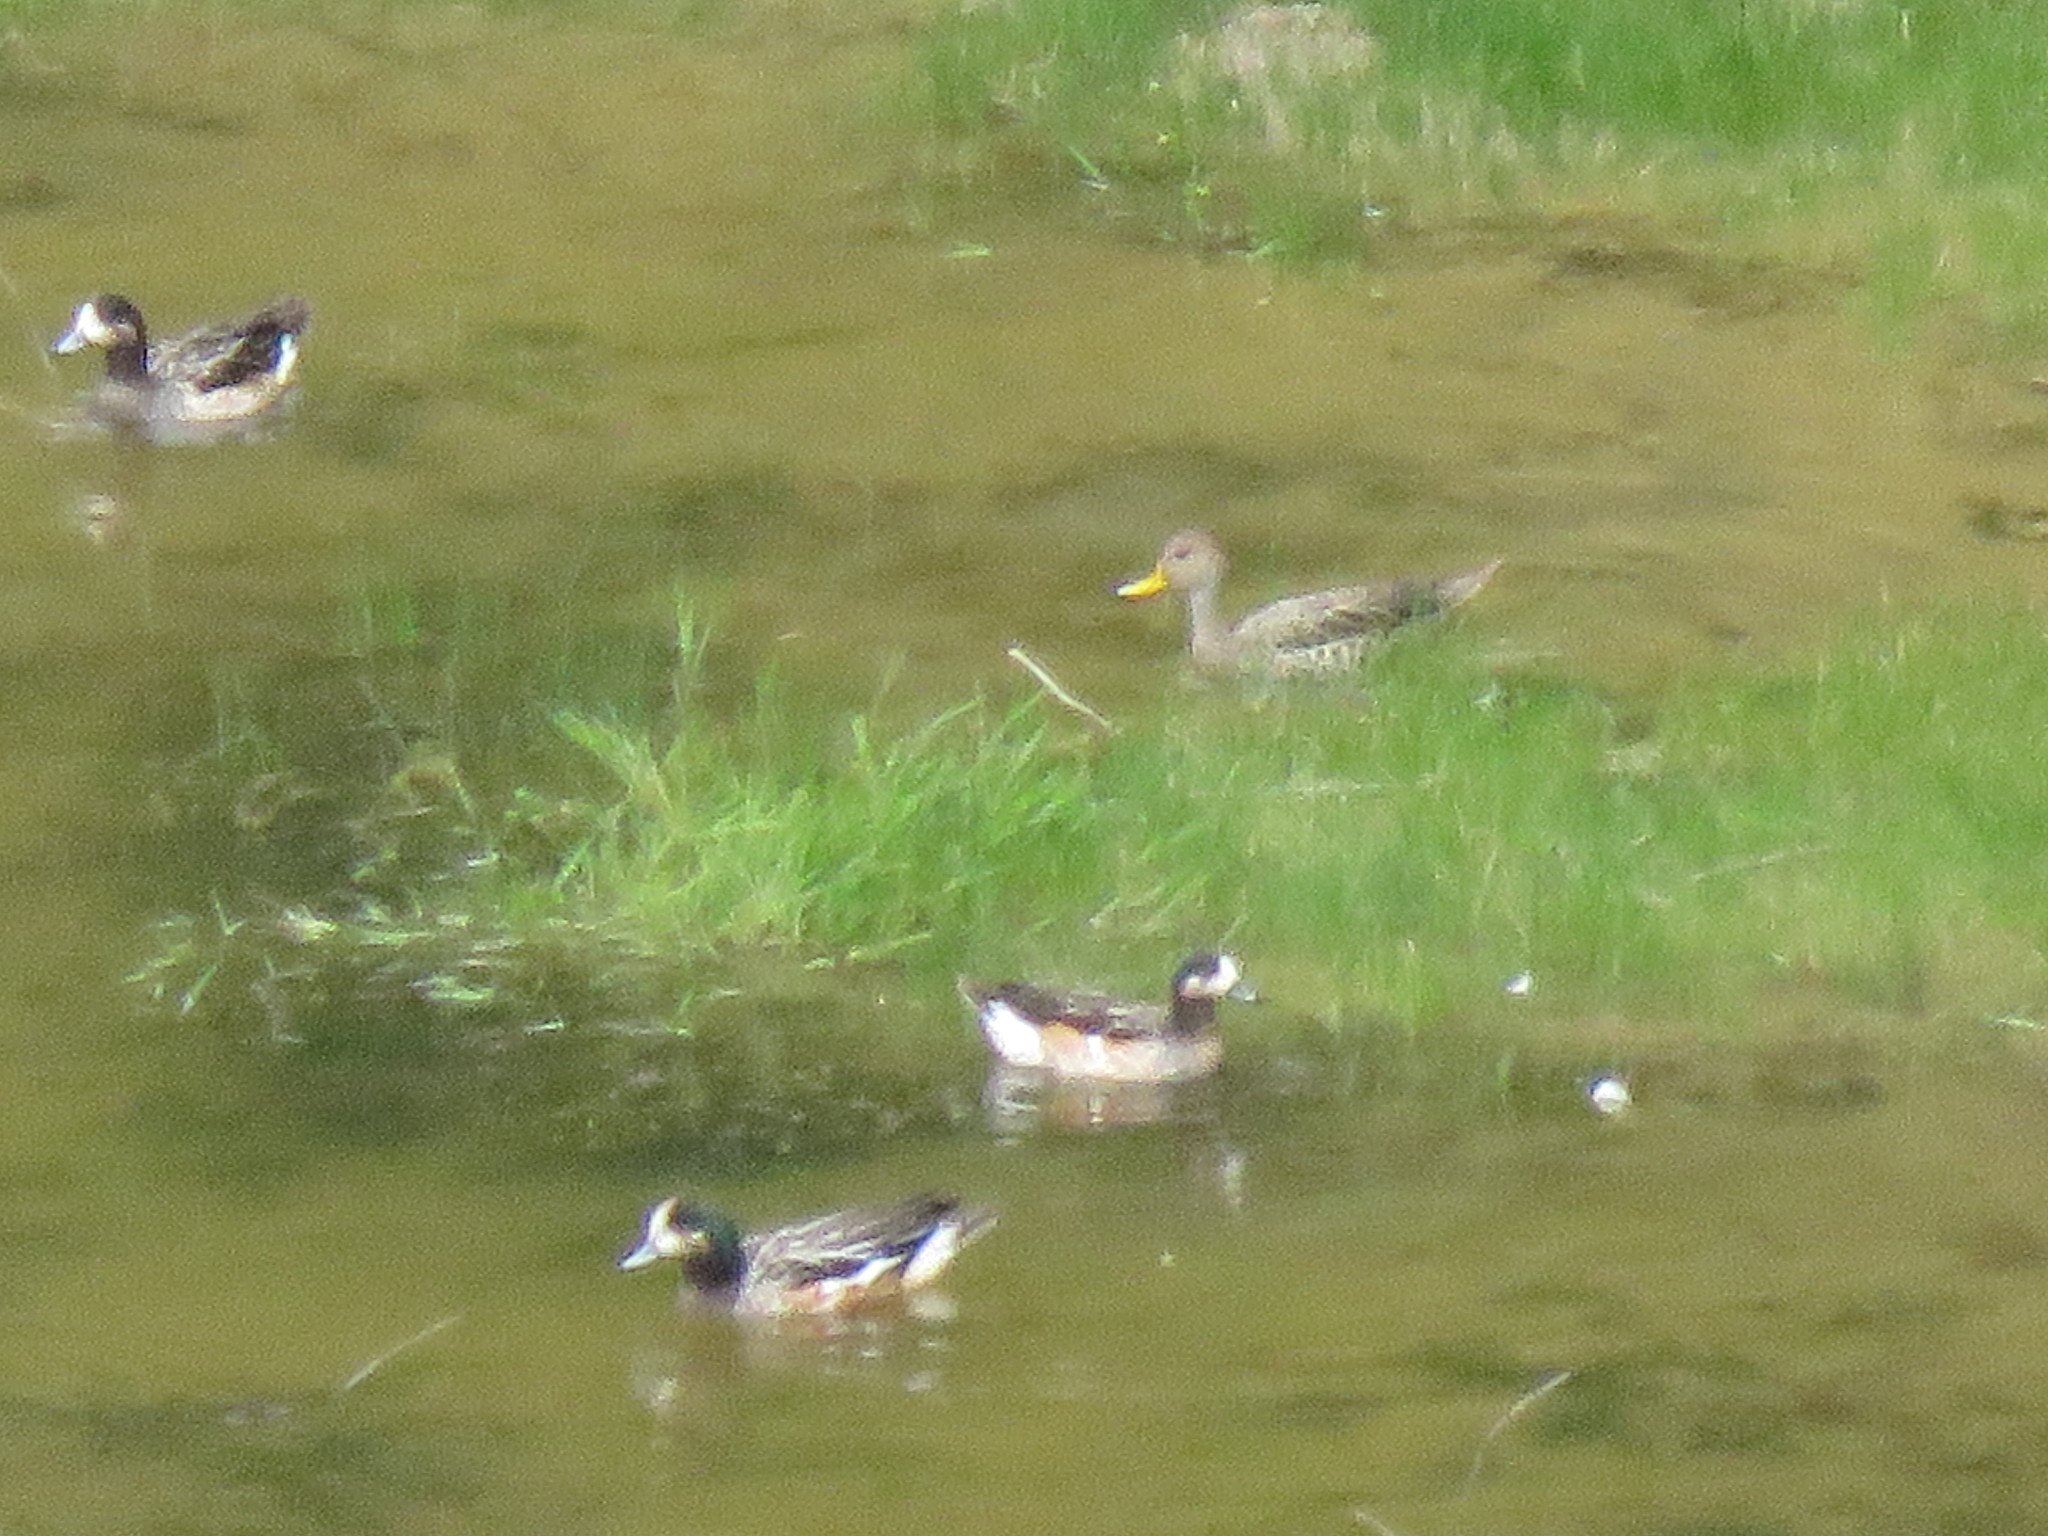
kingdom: Animalia
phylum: Chordata
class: Aves
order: Anseriformes
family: Anatidae
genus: Mareca
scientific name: Mareca sibilatrix
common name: Chiloe wigeon
